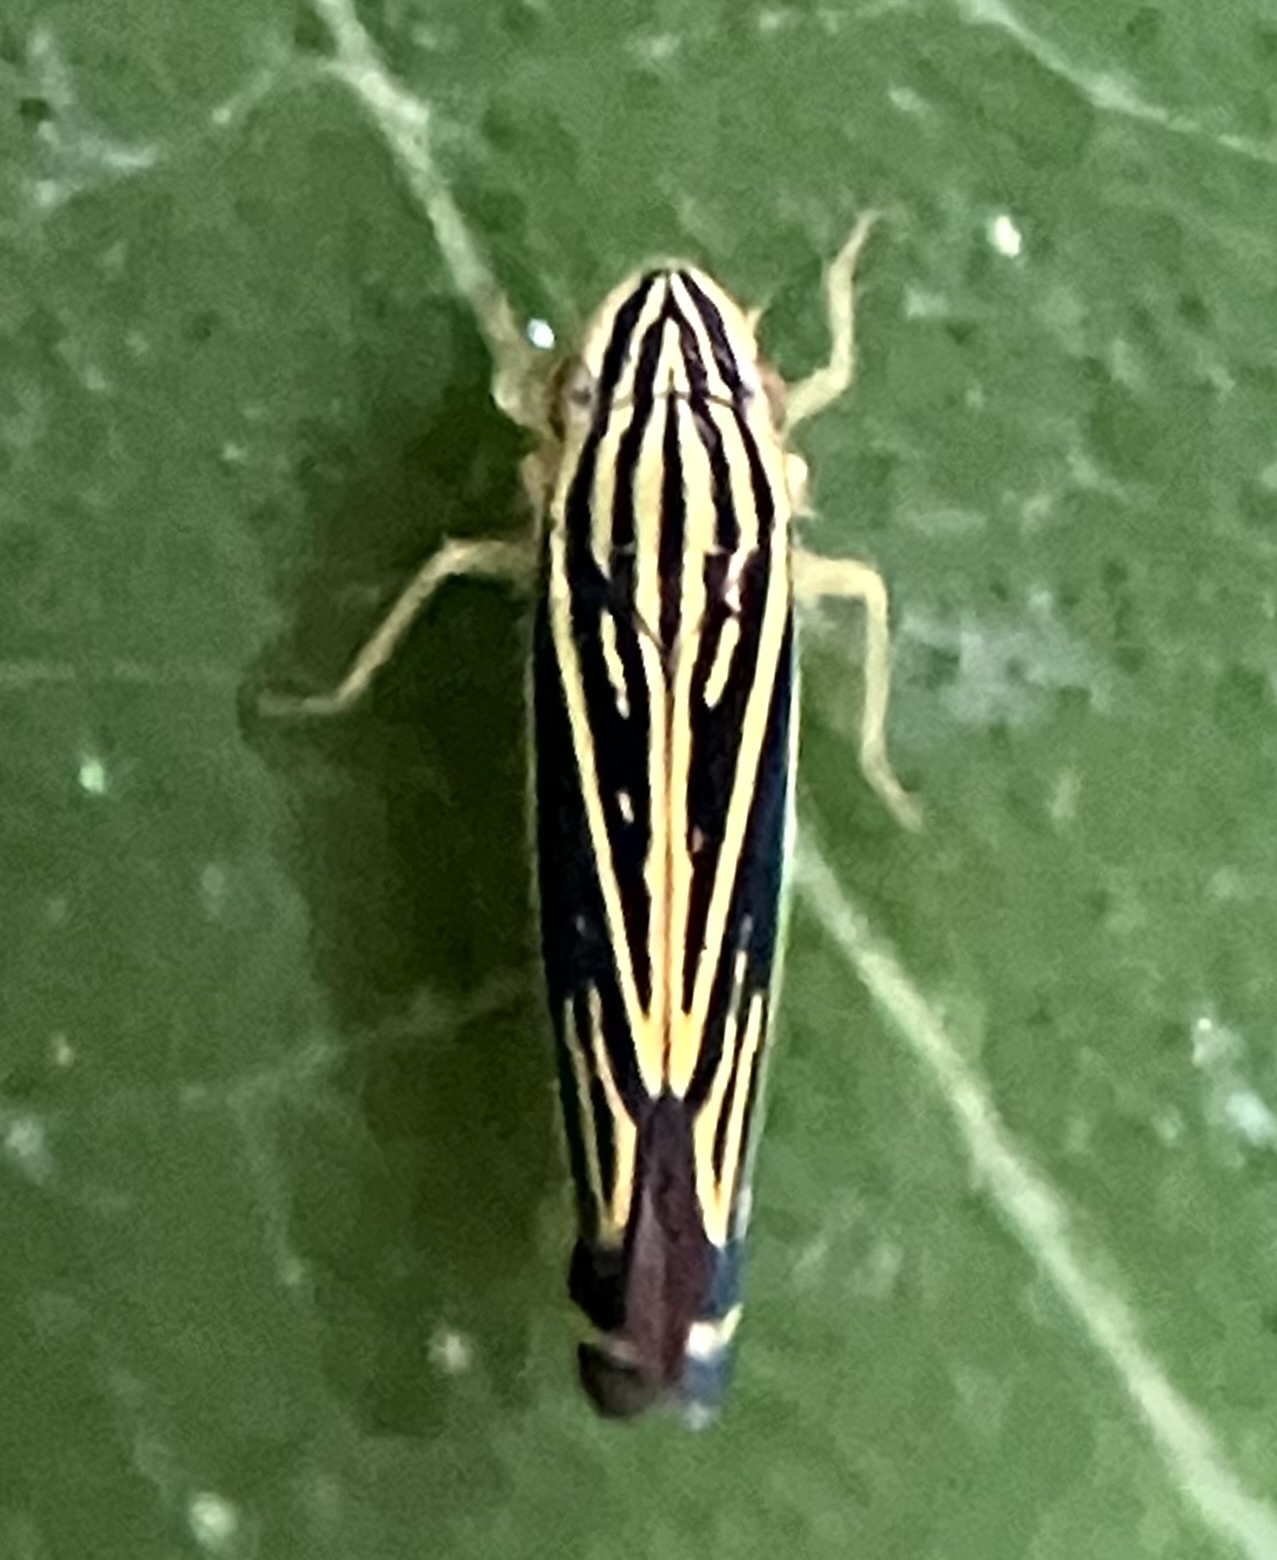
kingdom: Animalia
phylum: Arthropoda
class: Insecta
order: Hemiptera
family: Cicadellidae
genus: Sibovia
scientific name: Sibovia occatoria
